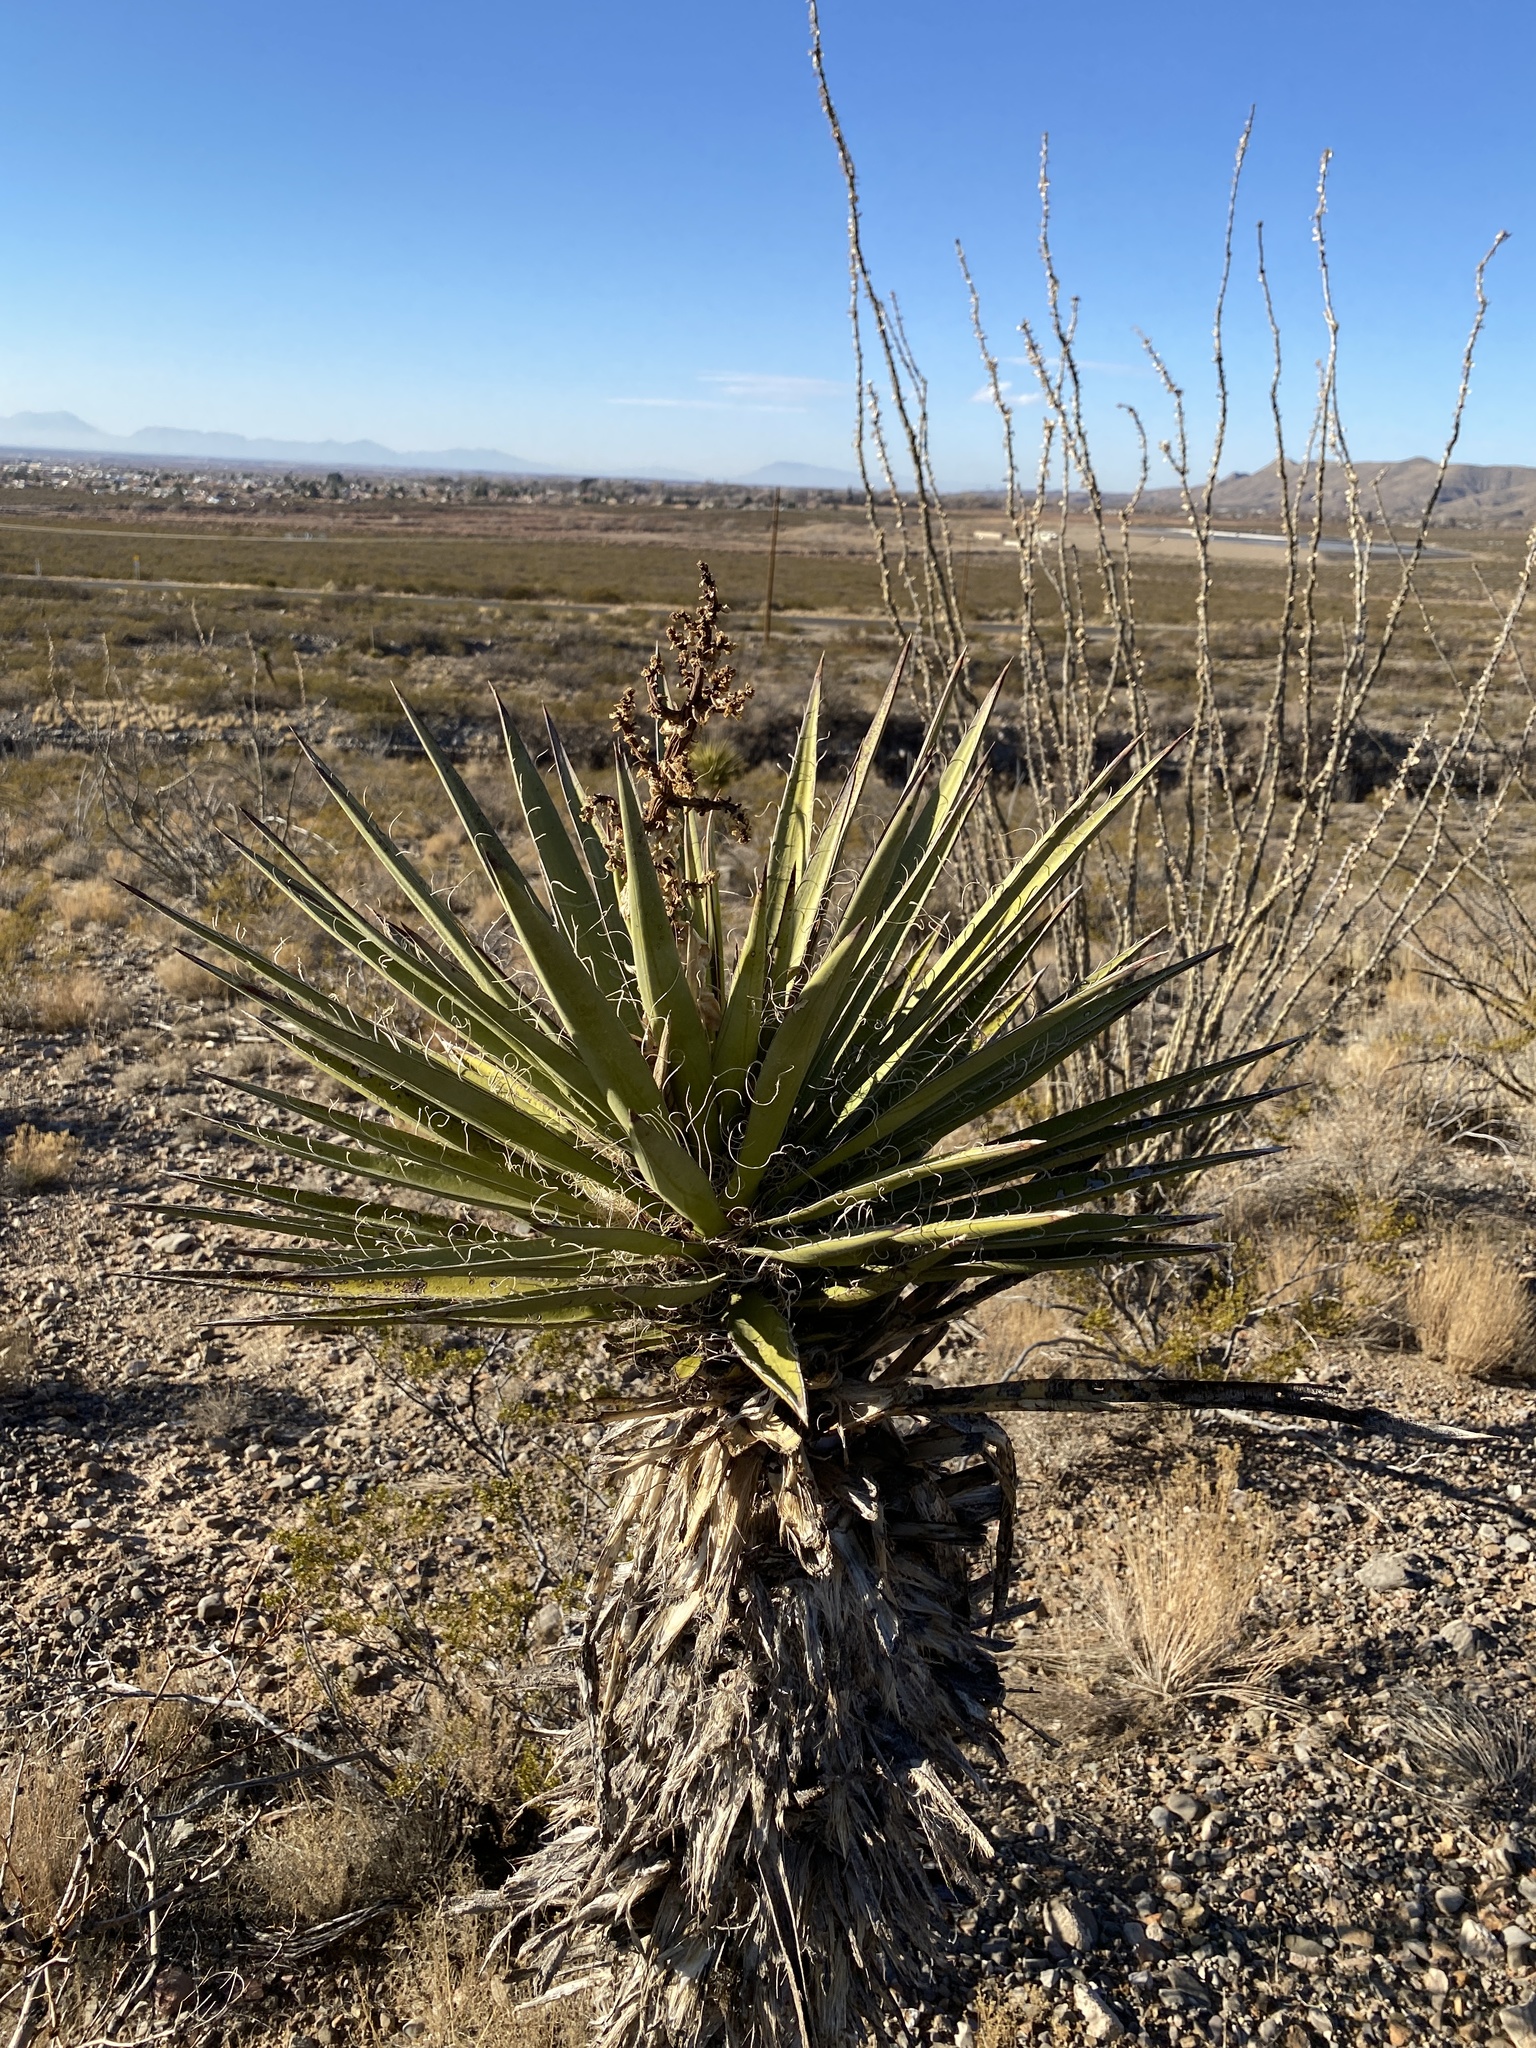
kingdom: Plantae
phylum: Tracheophyta
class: Liliopsida
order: Asparagales
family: Asparagaceae
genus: Yucca
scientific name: Yucca treculiana
